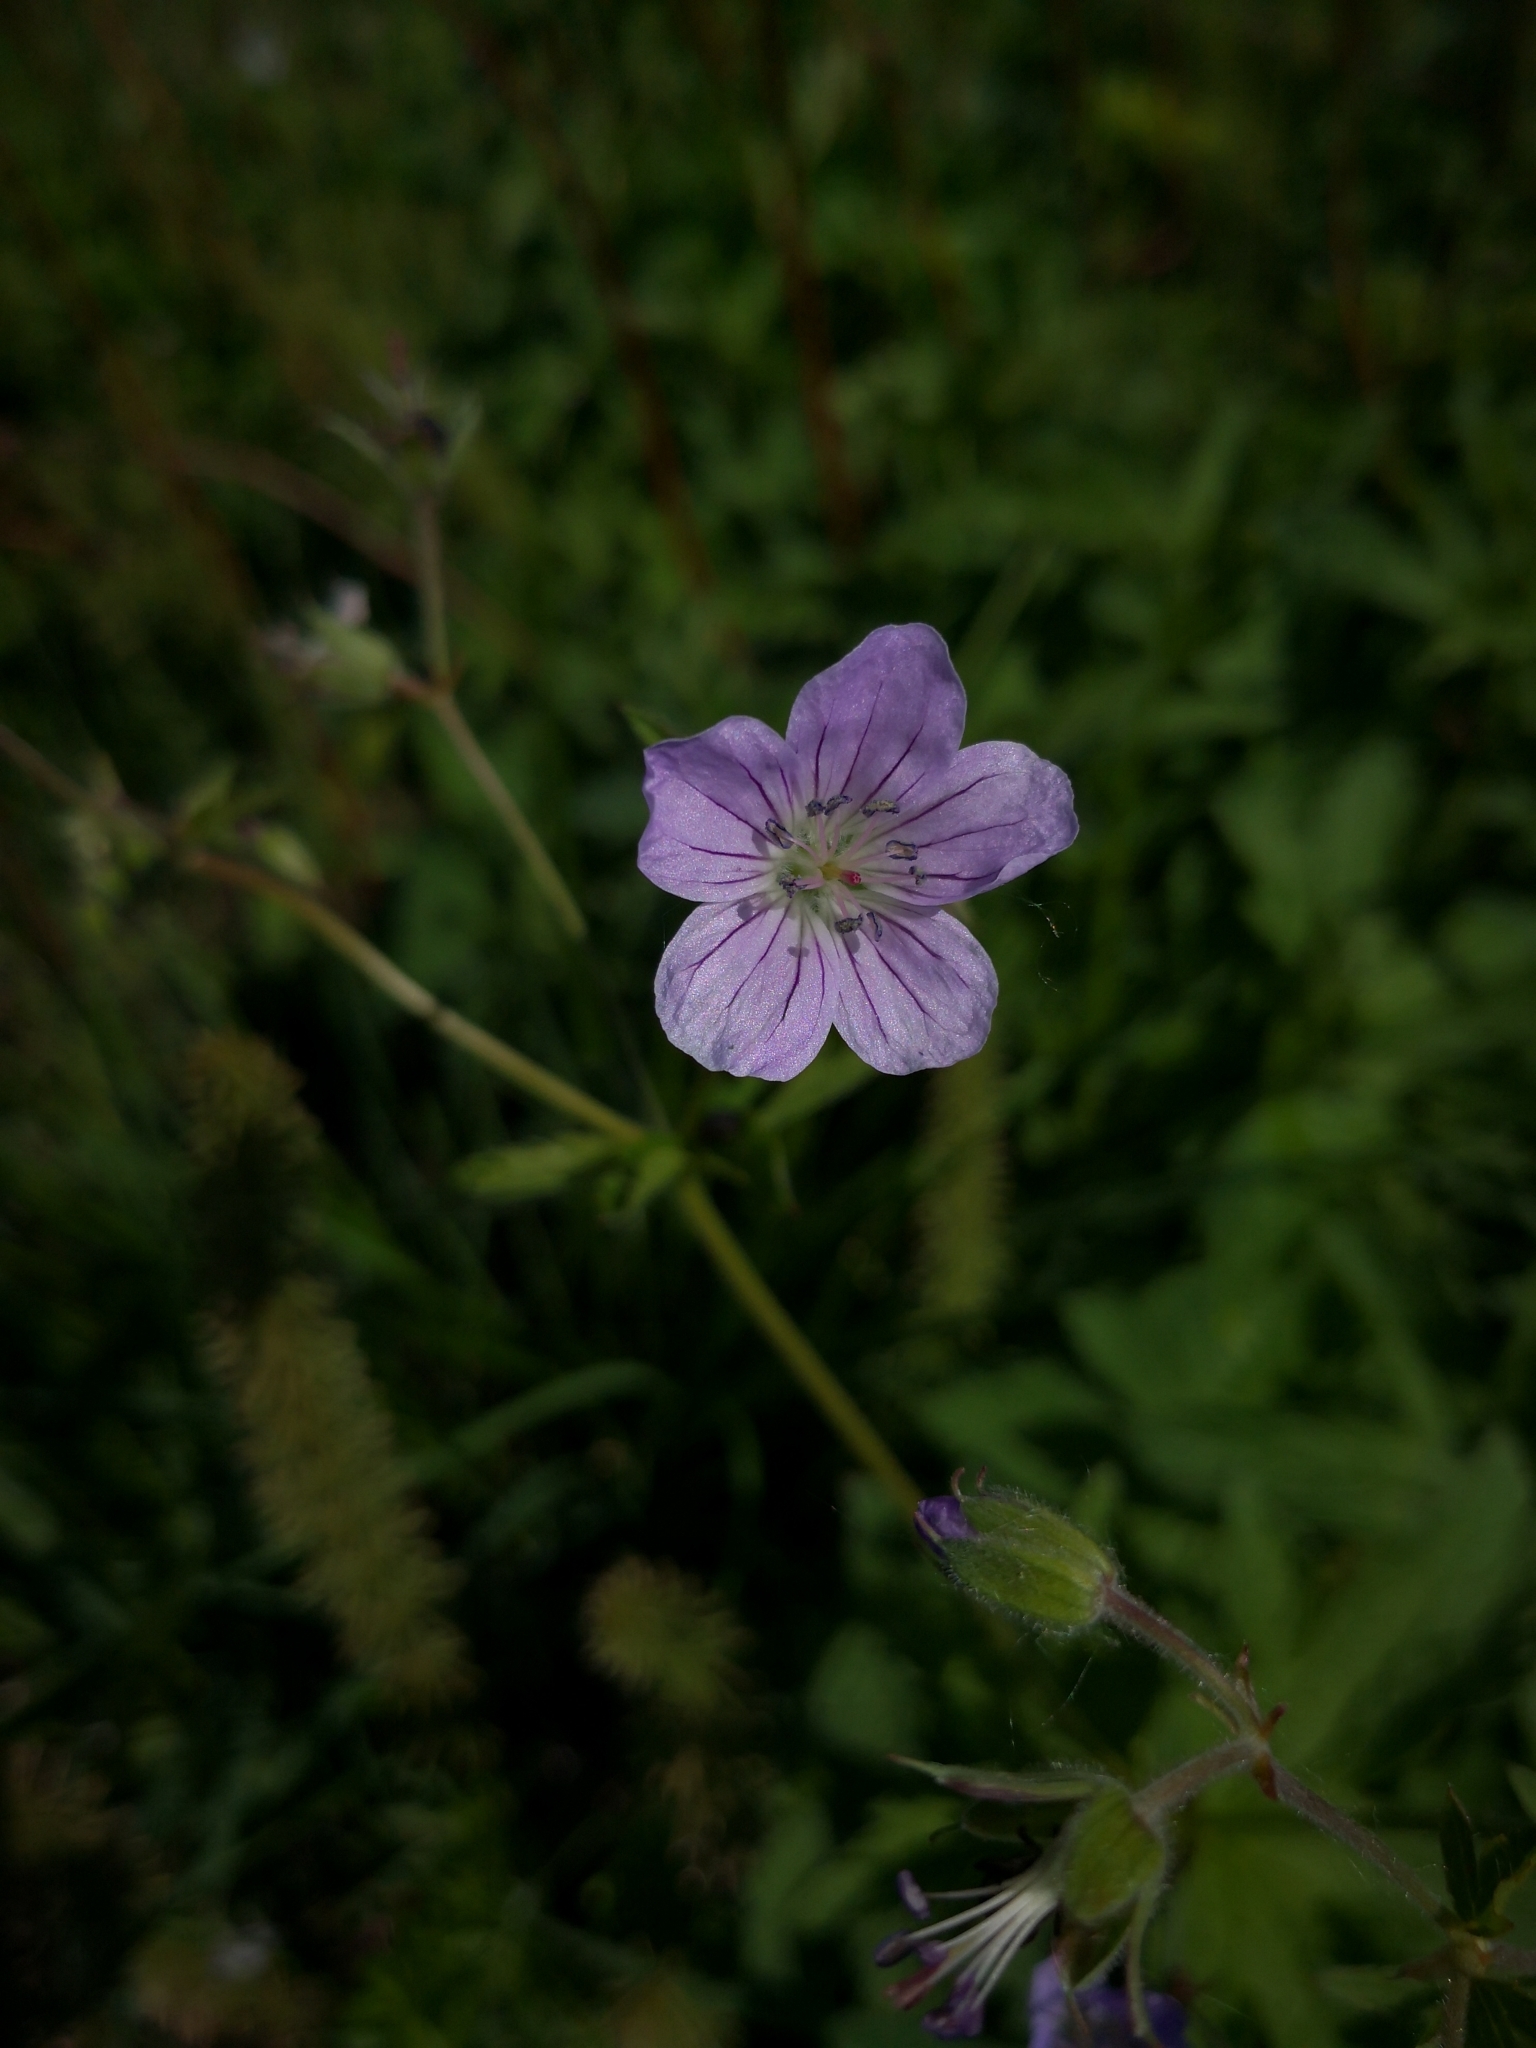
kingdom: Plantae
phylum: Tracheophyta
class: Magnoliopsida
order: Geraniales
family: Geraniaceae
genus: Geranium
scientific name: Geranium sylvaticum
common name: Wood crane's-bill
